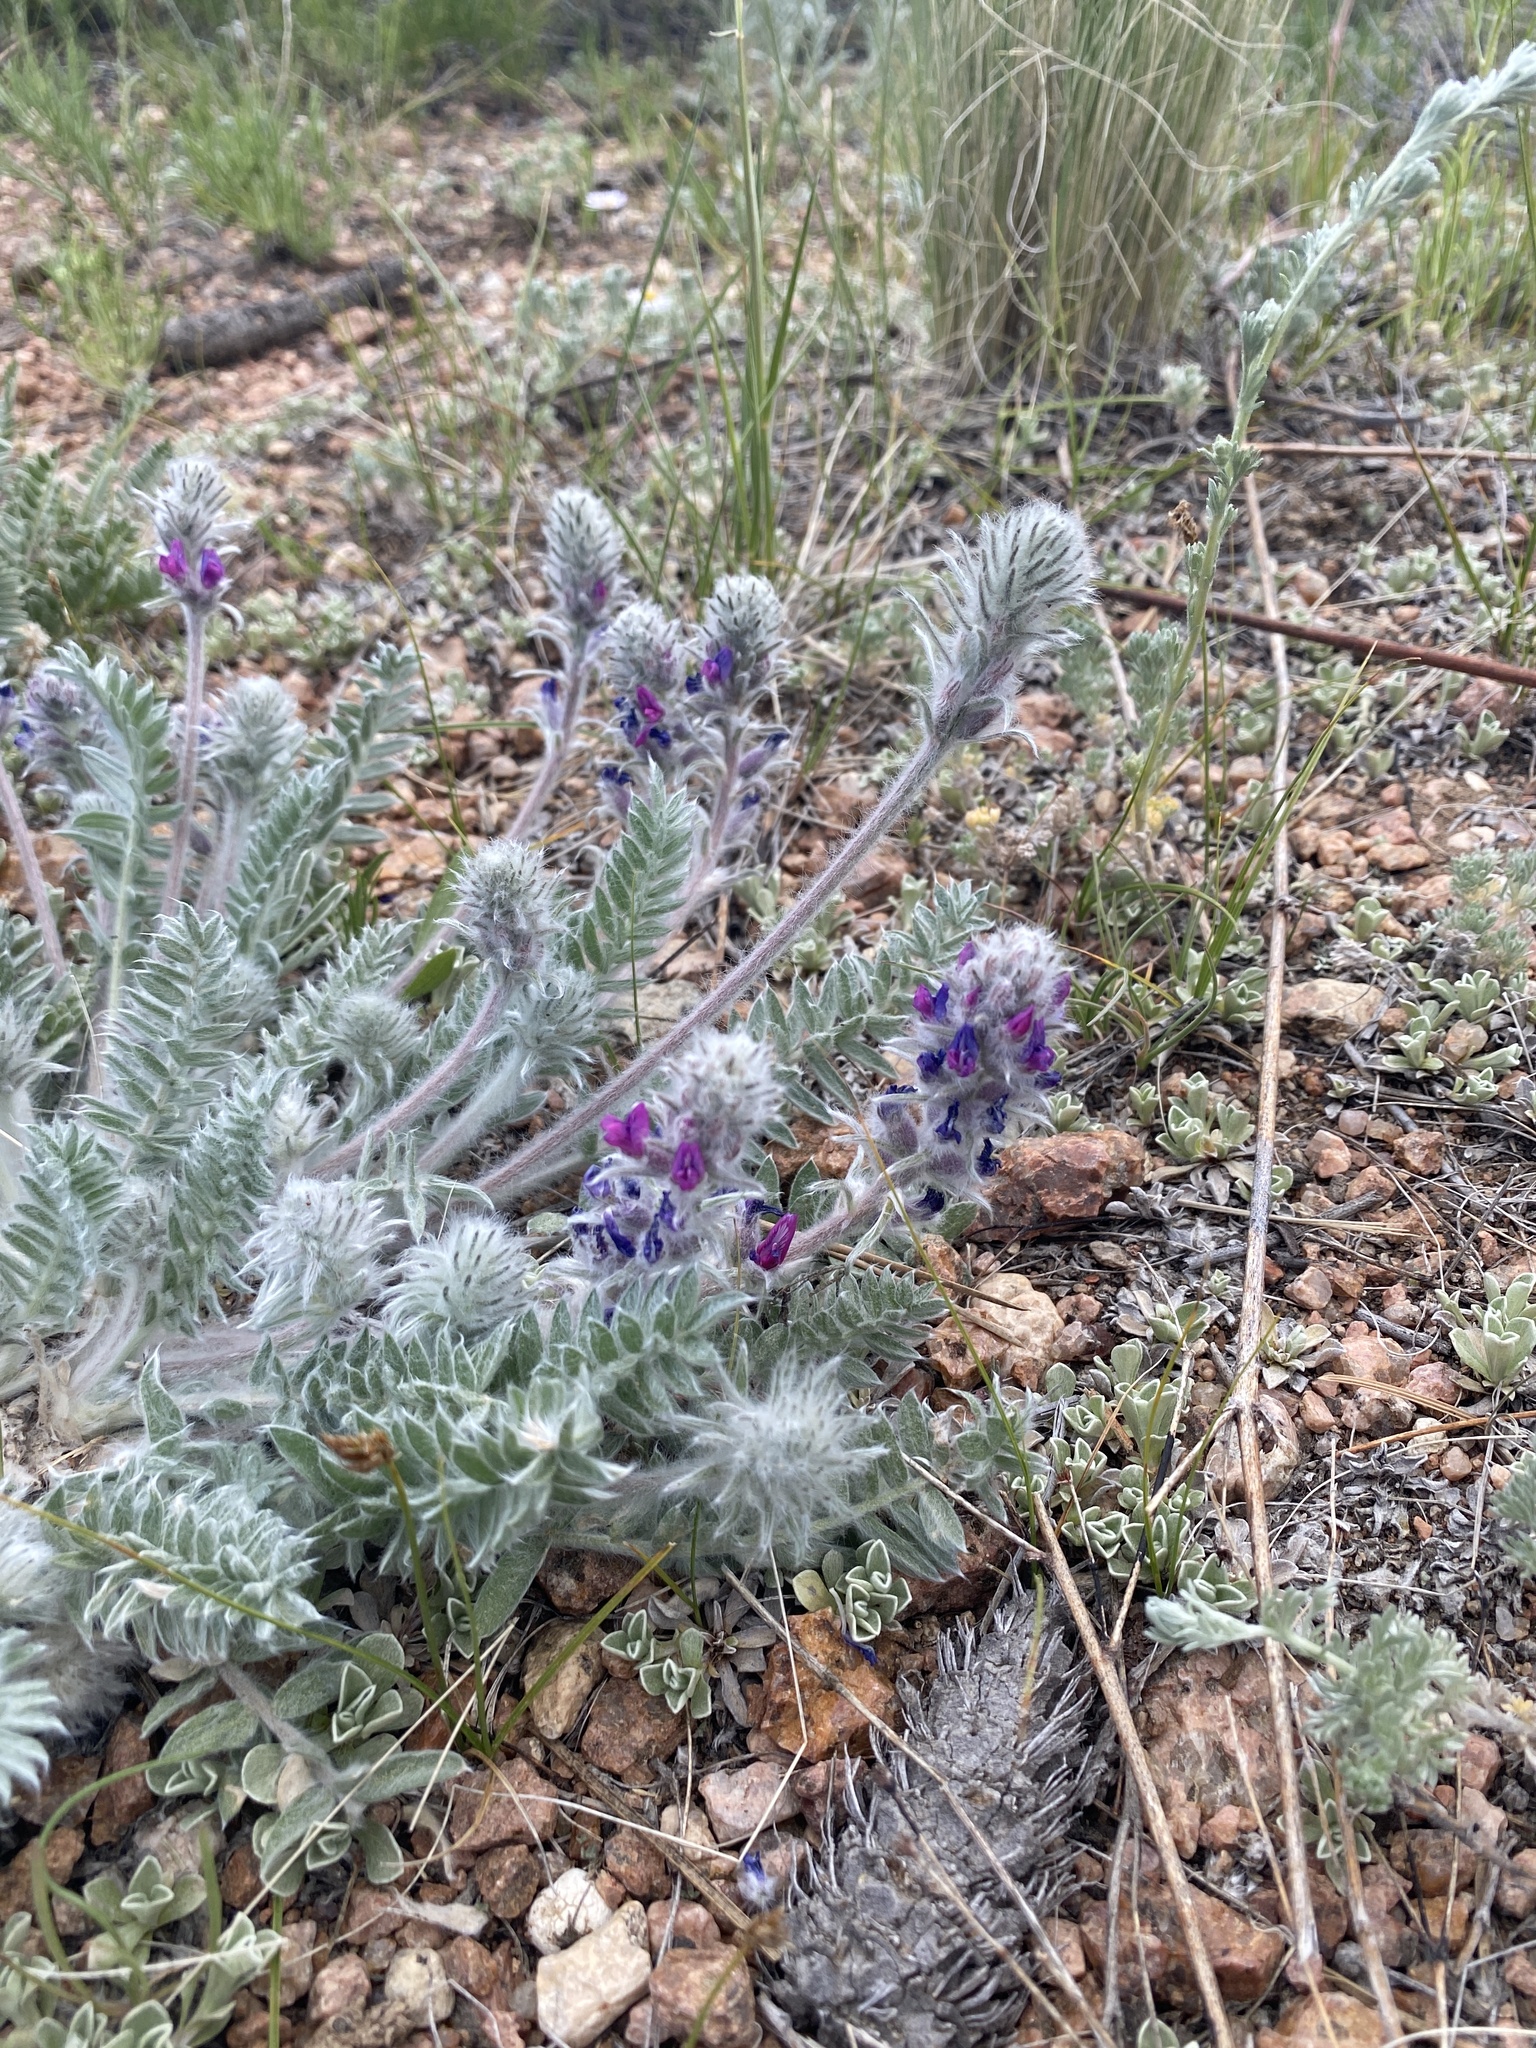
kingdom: Plantae
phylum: Tracheophyta
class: Magnoliopsida
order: Fabales
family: Fabaceae
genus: Oxytropis
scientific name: Oxytropis splendens
